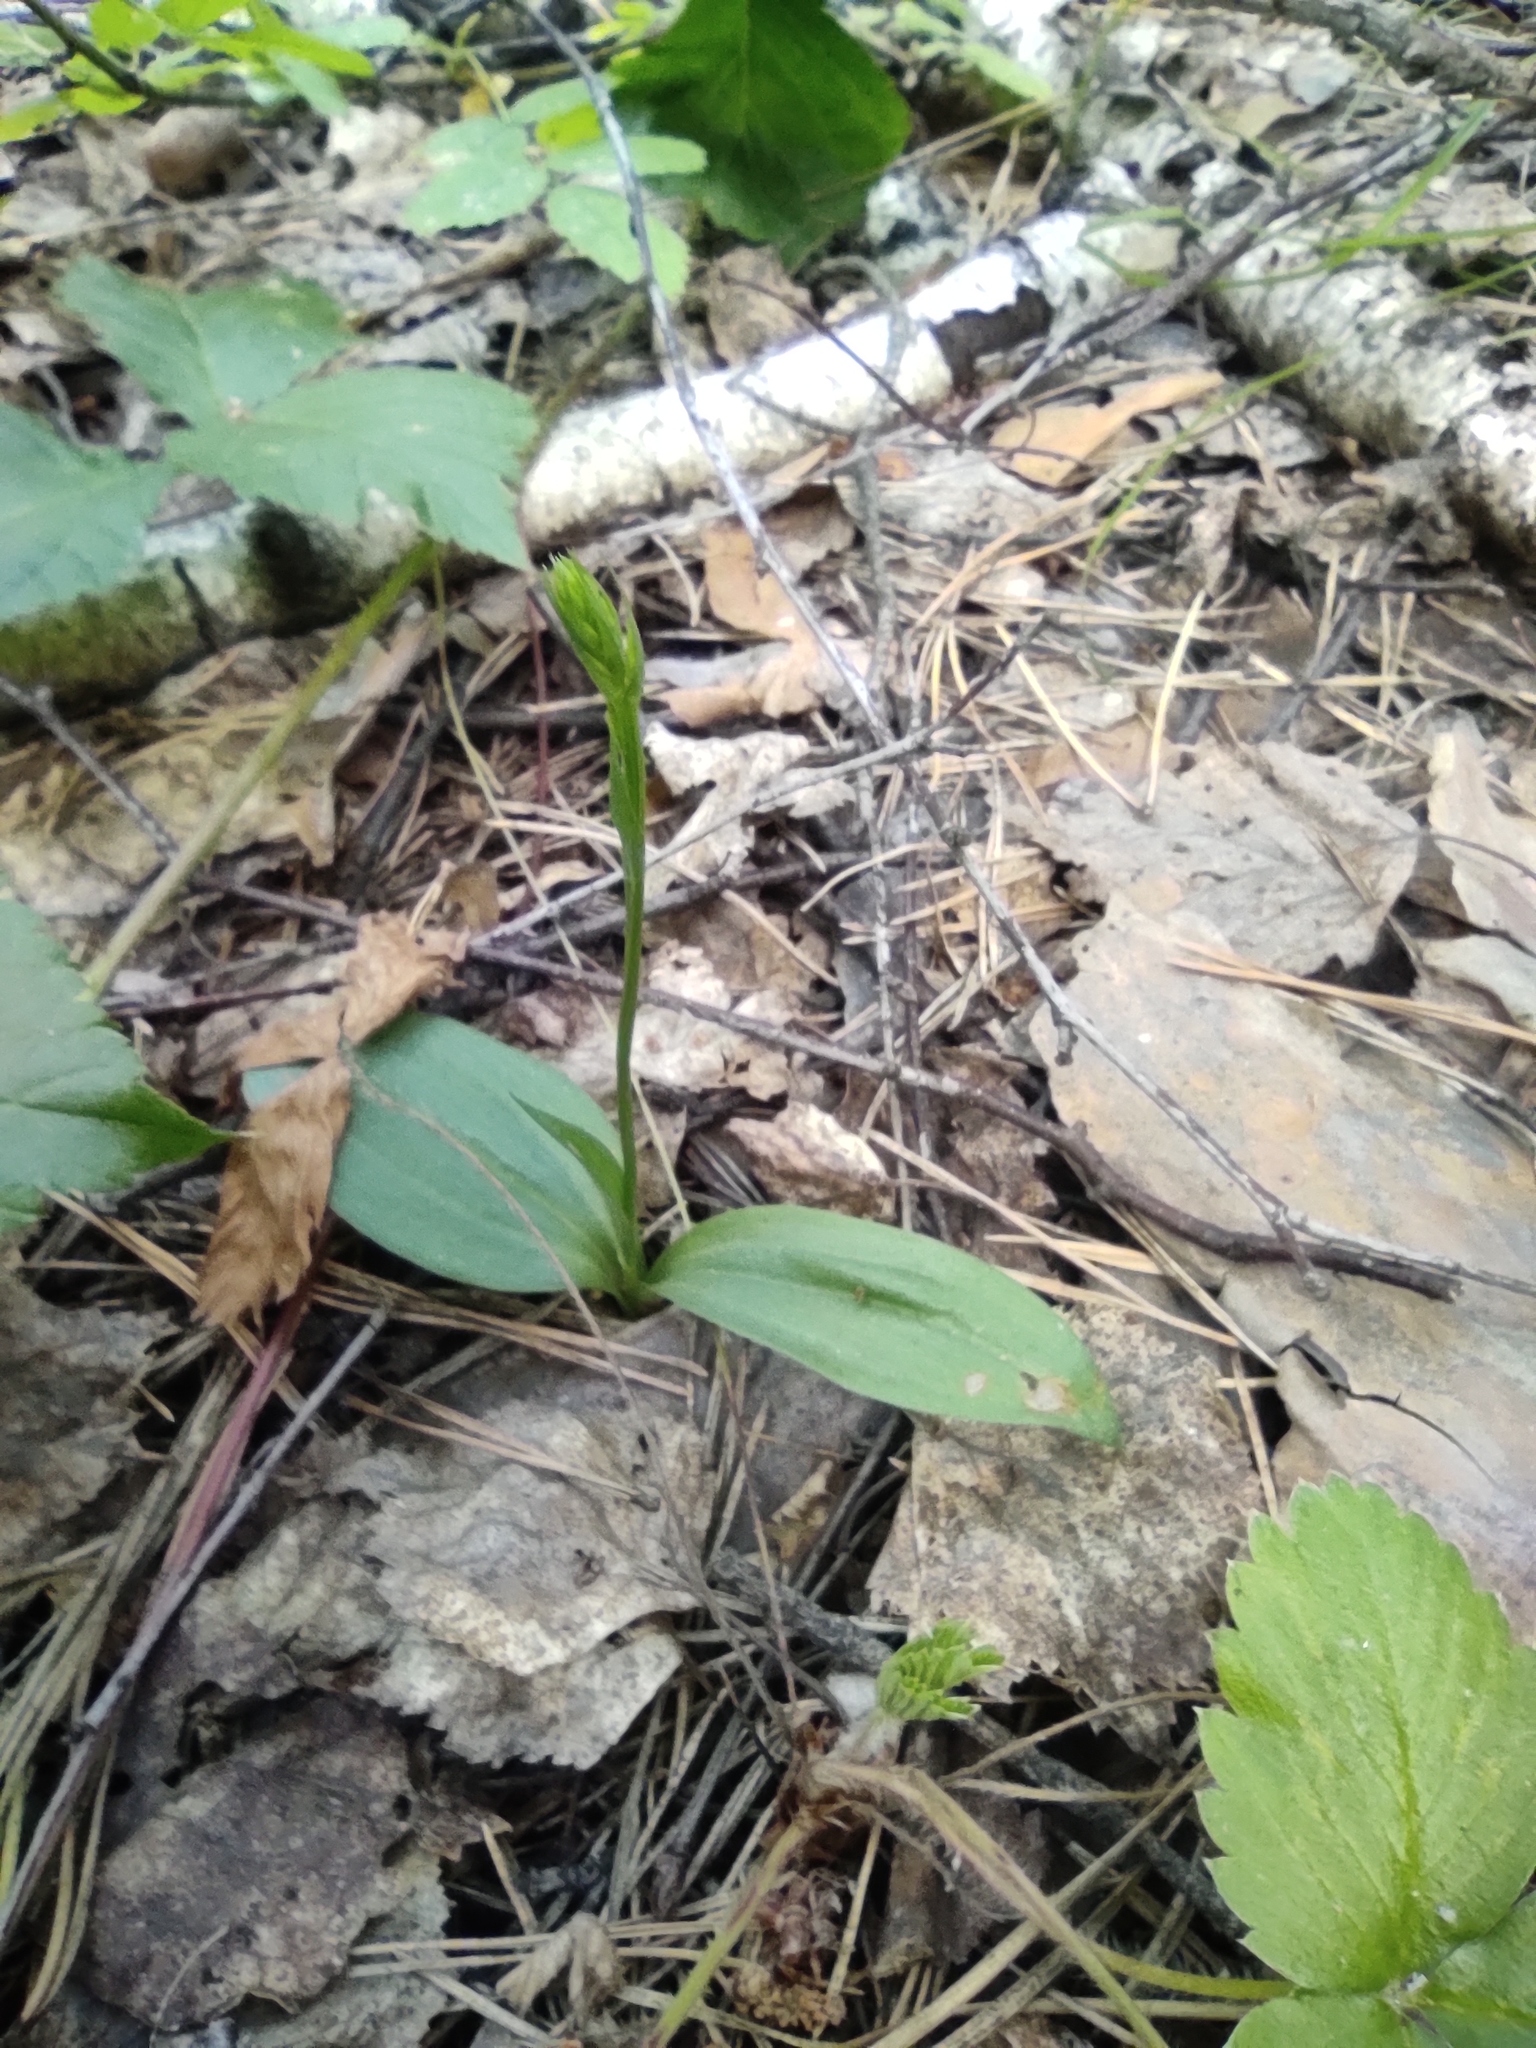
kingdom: Plantae
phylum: Tracheophyta
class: Liliopsida
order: Asparagales
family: Orchidaceae
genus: Hemipilia
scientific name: Hemipilia cucullata
